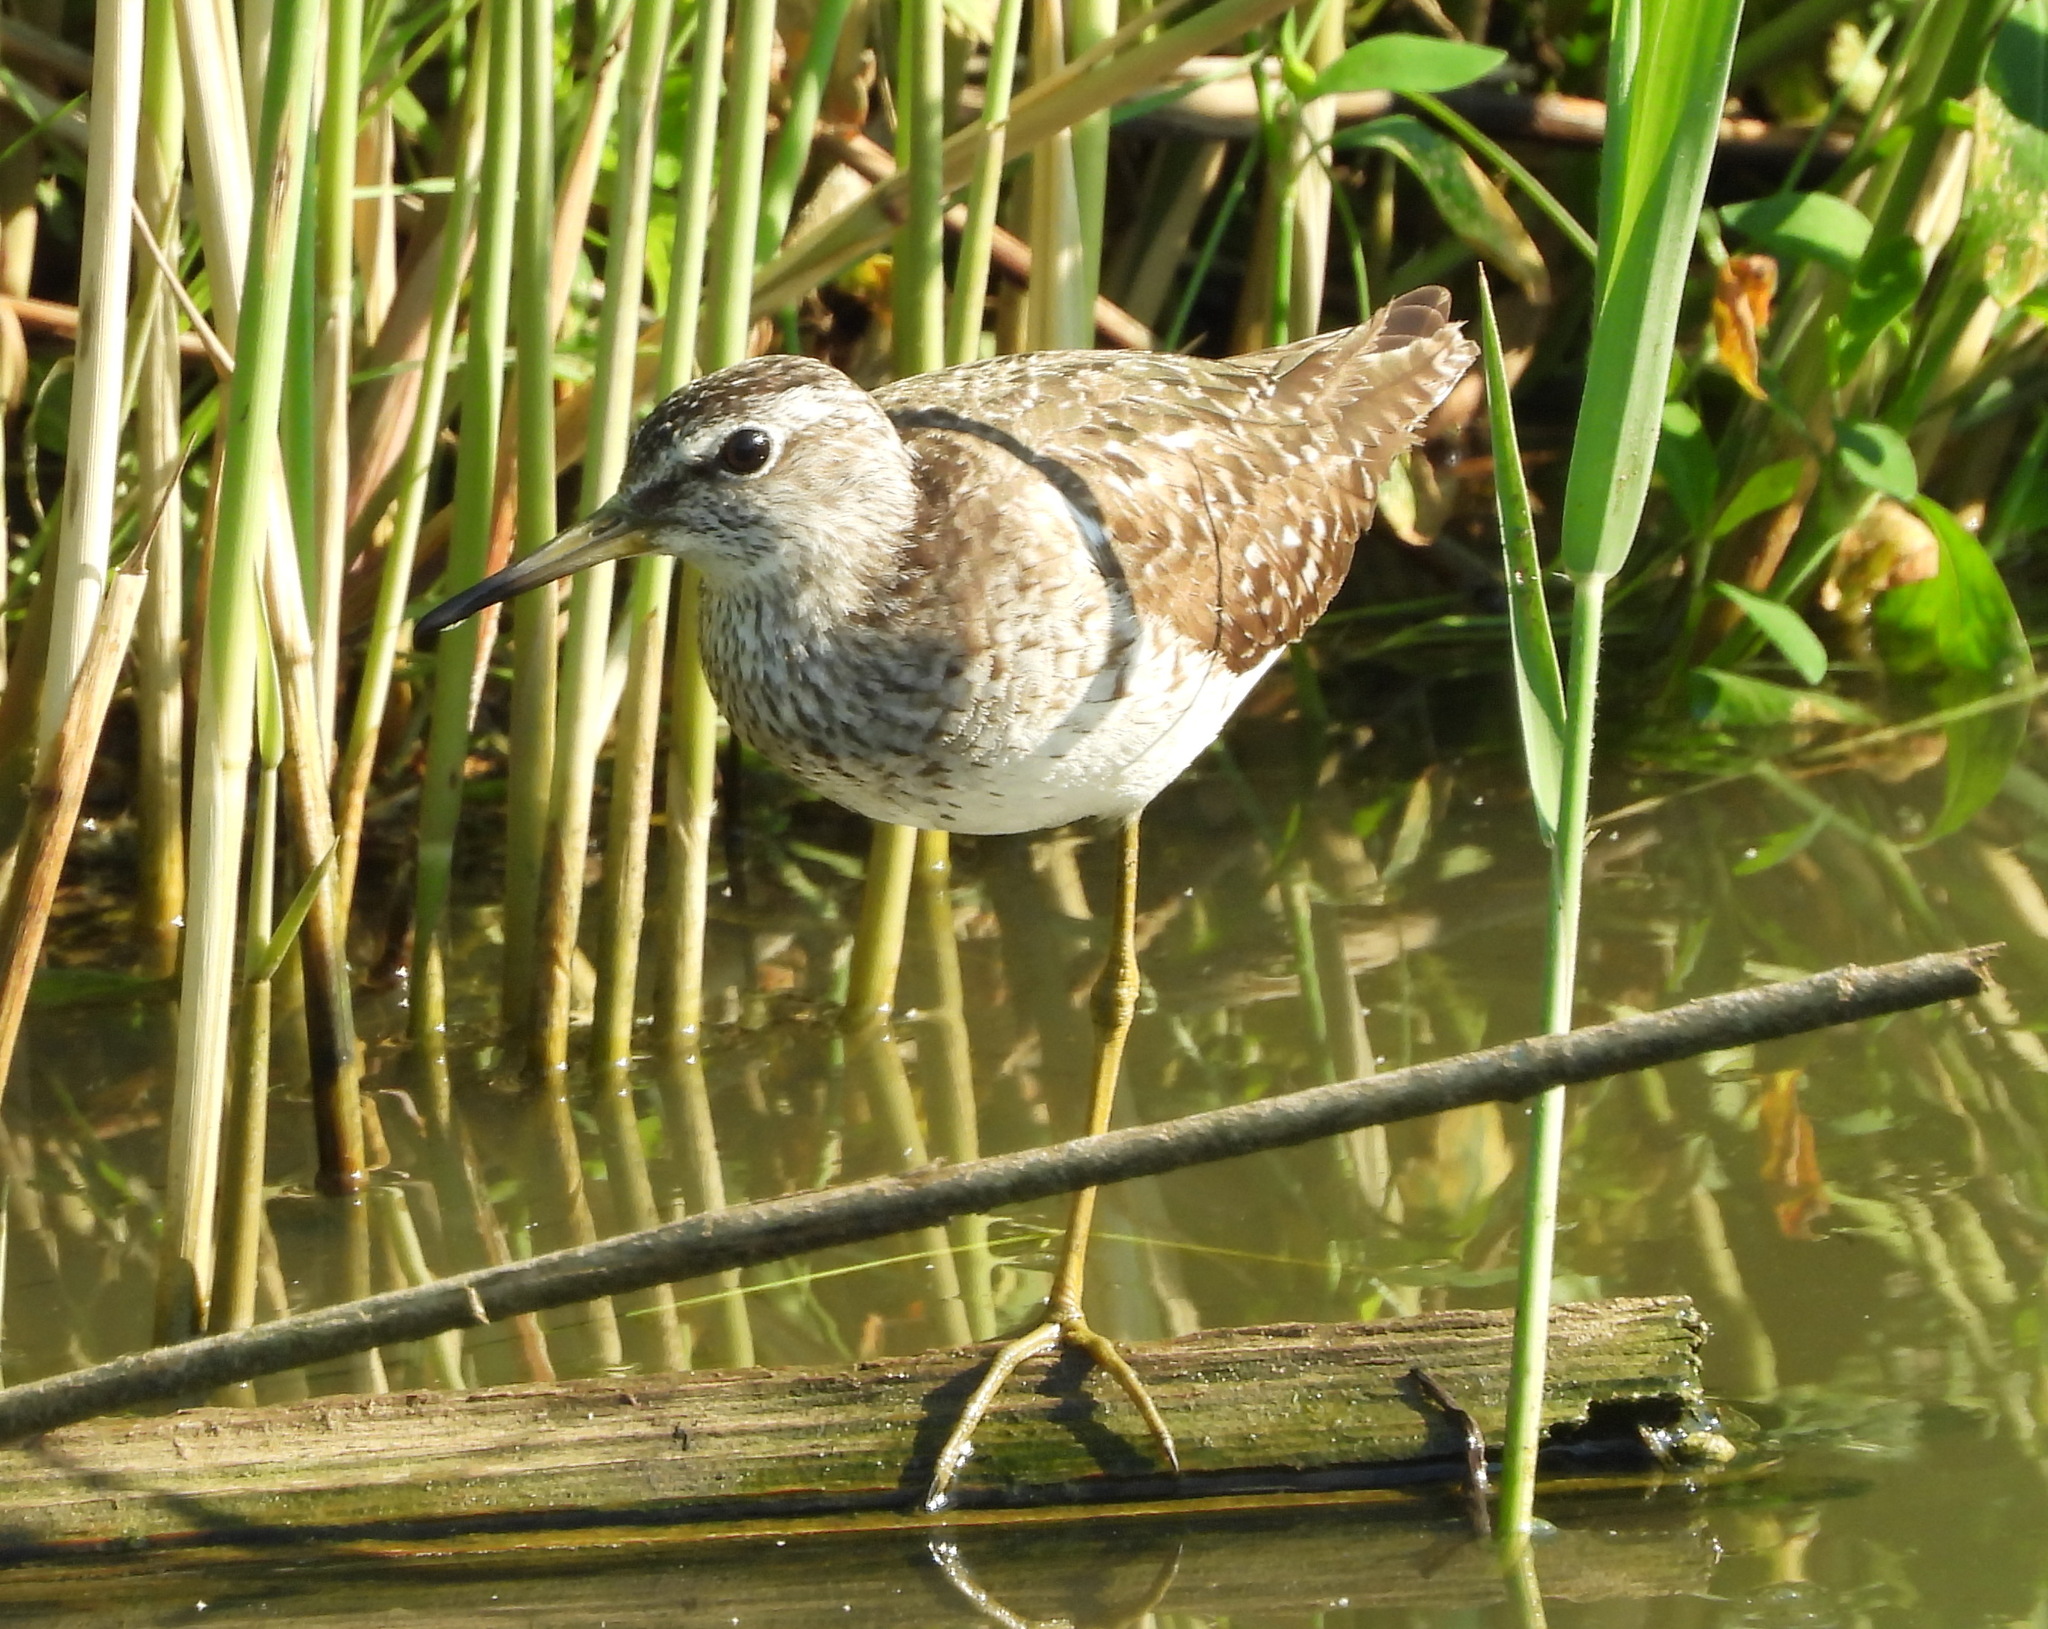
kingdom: Animalia
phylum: Chordata
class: Aves
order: Charadriiformes
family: Scolopacidae
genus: Tringa
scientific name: Tringa glareola
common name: Wood sandpiper
